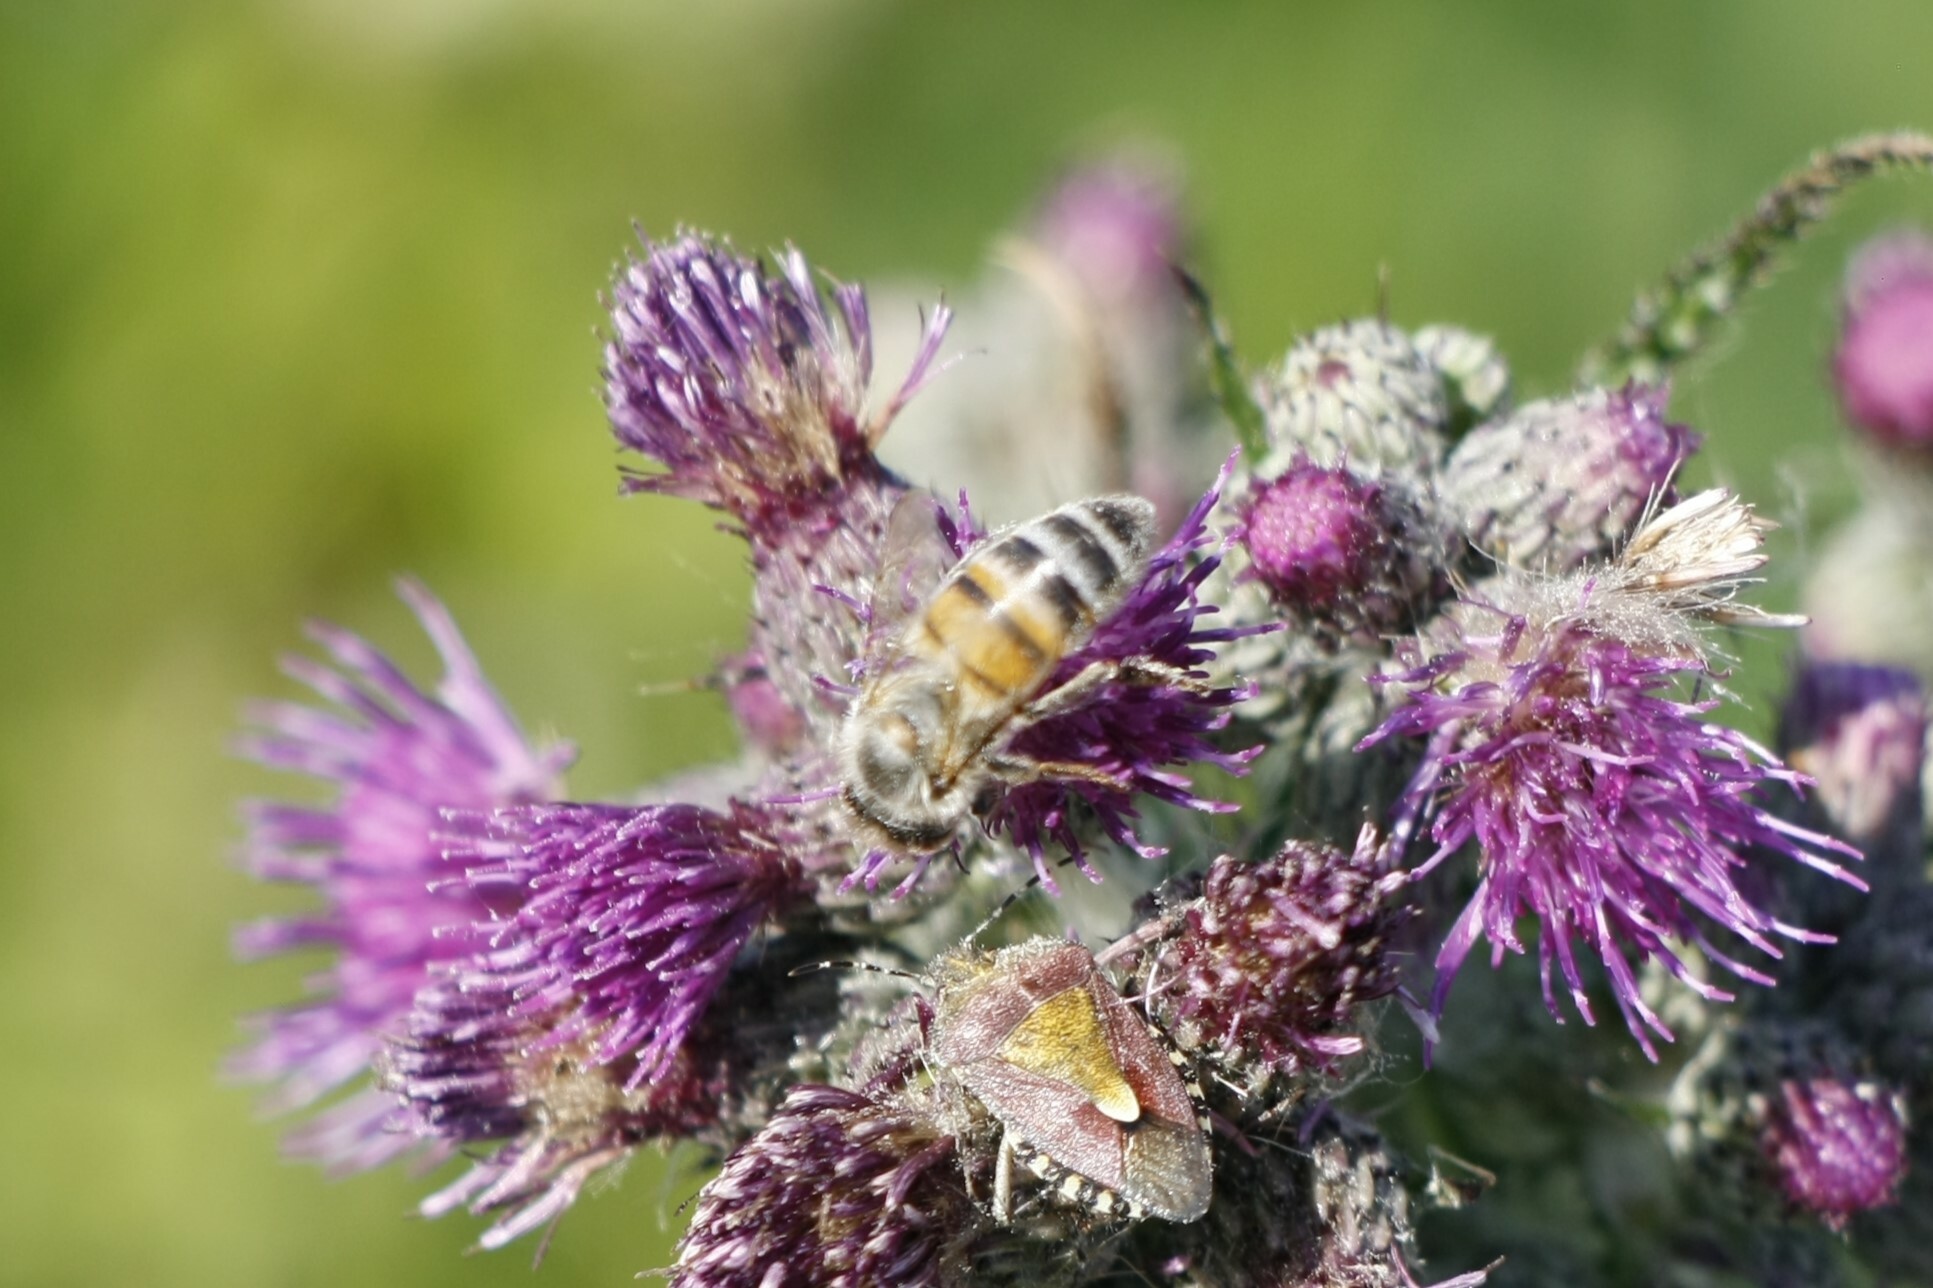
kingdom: Animalia
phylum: Arthropoda
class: Insecta
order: Hymenoptera
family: Apidae
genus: Apis
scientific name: Apis mellifera
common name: Honey bee
